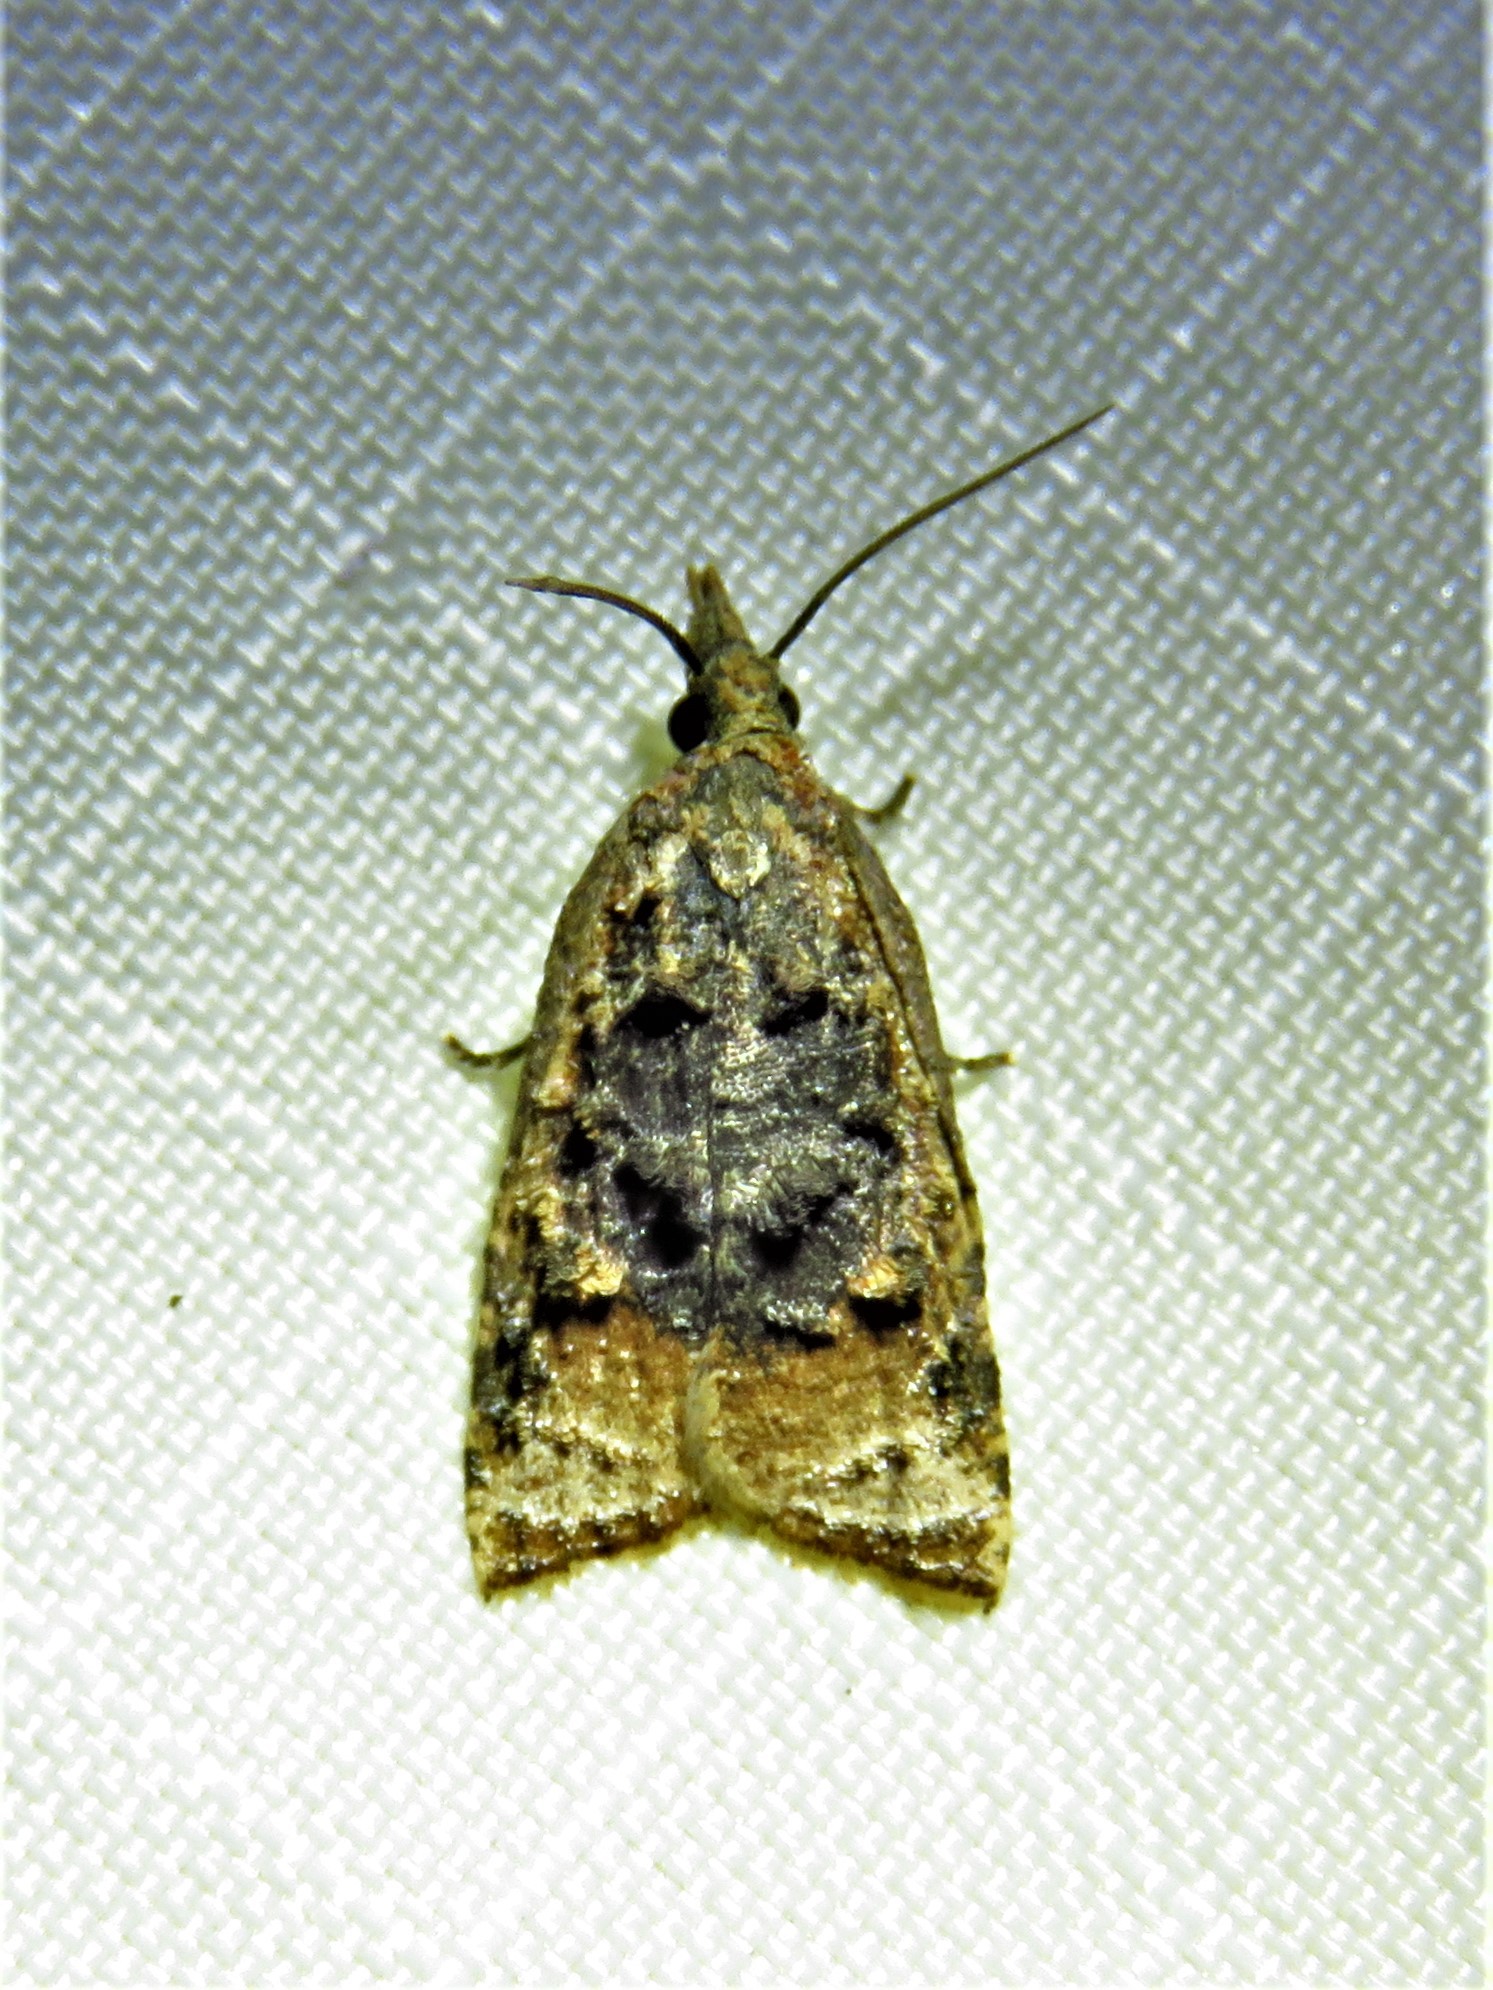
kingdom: Animalia
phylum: Arthropoda
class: Insecta
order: Lepidoptera
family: Tortricidae
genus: Platynota
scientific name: Platynota flavedana
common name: Black-shaded platynota moth
